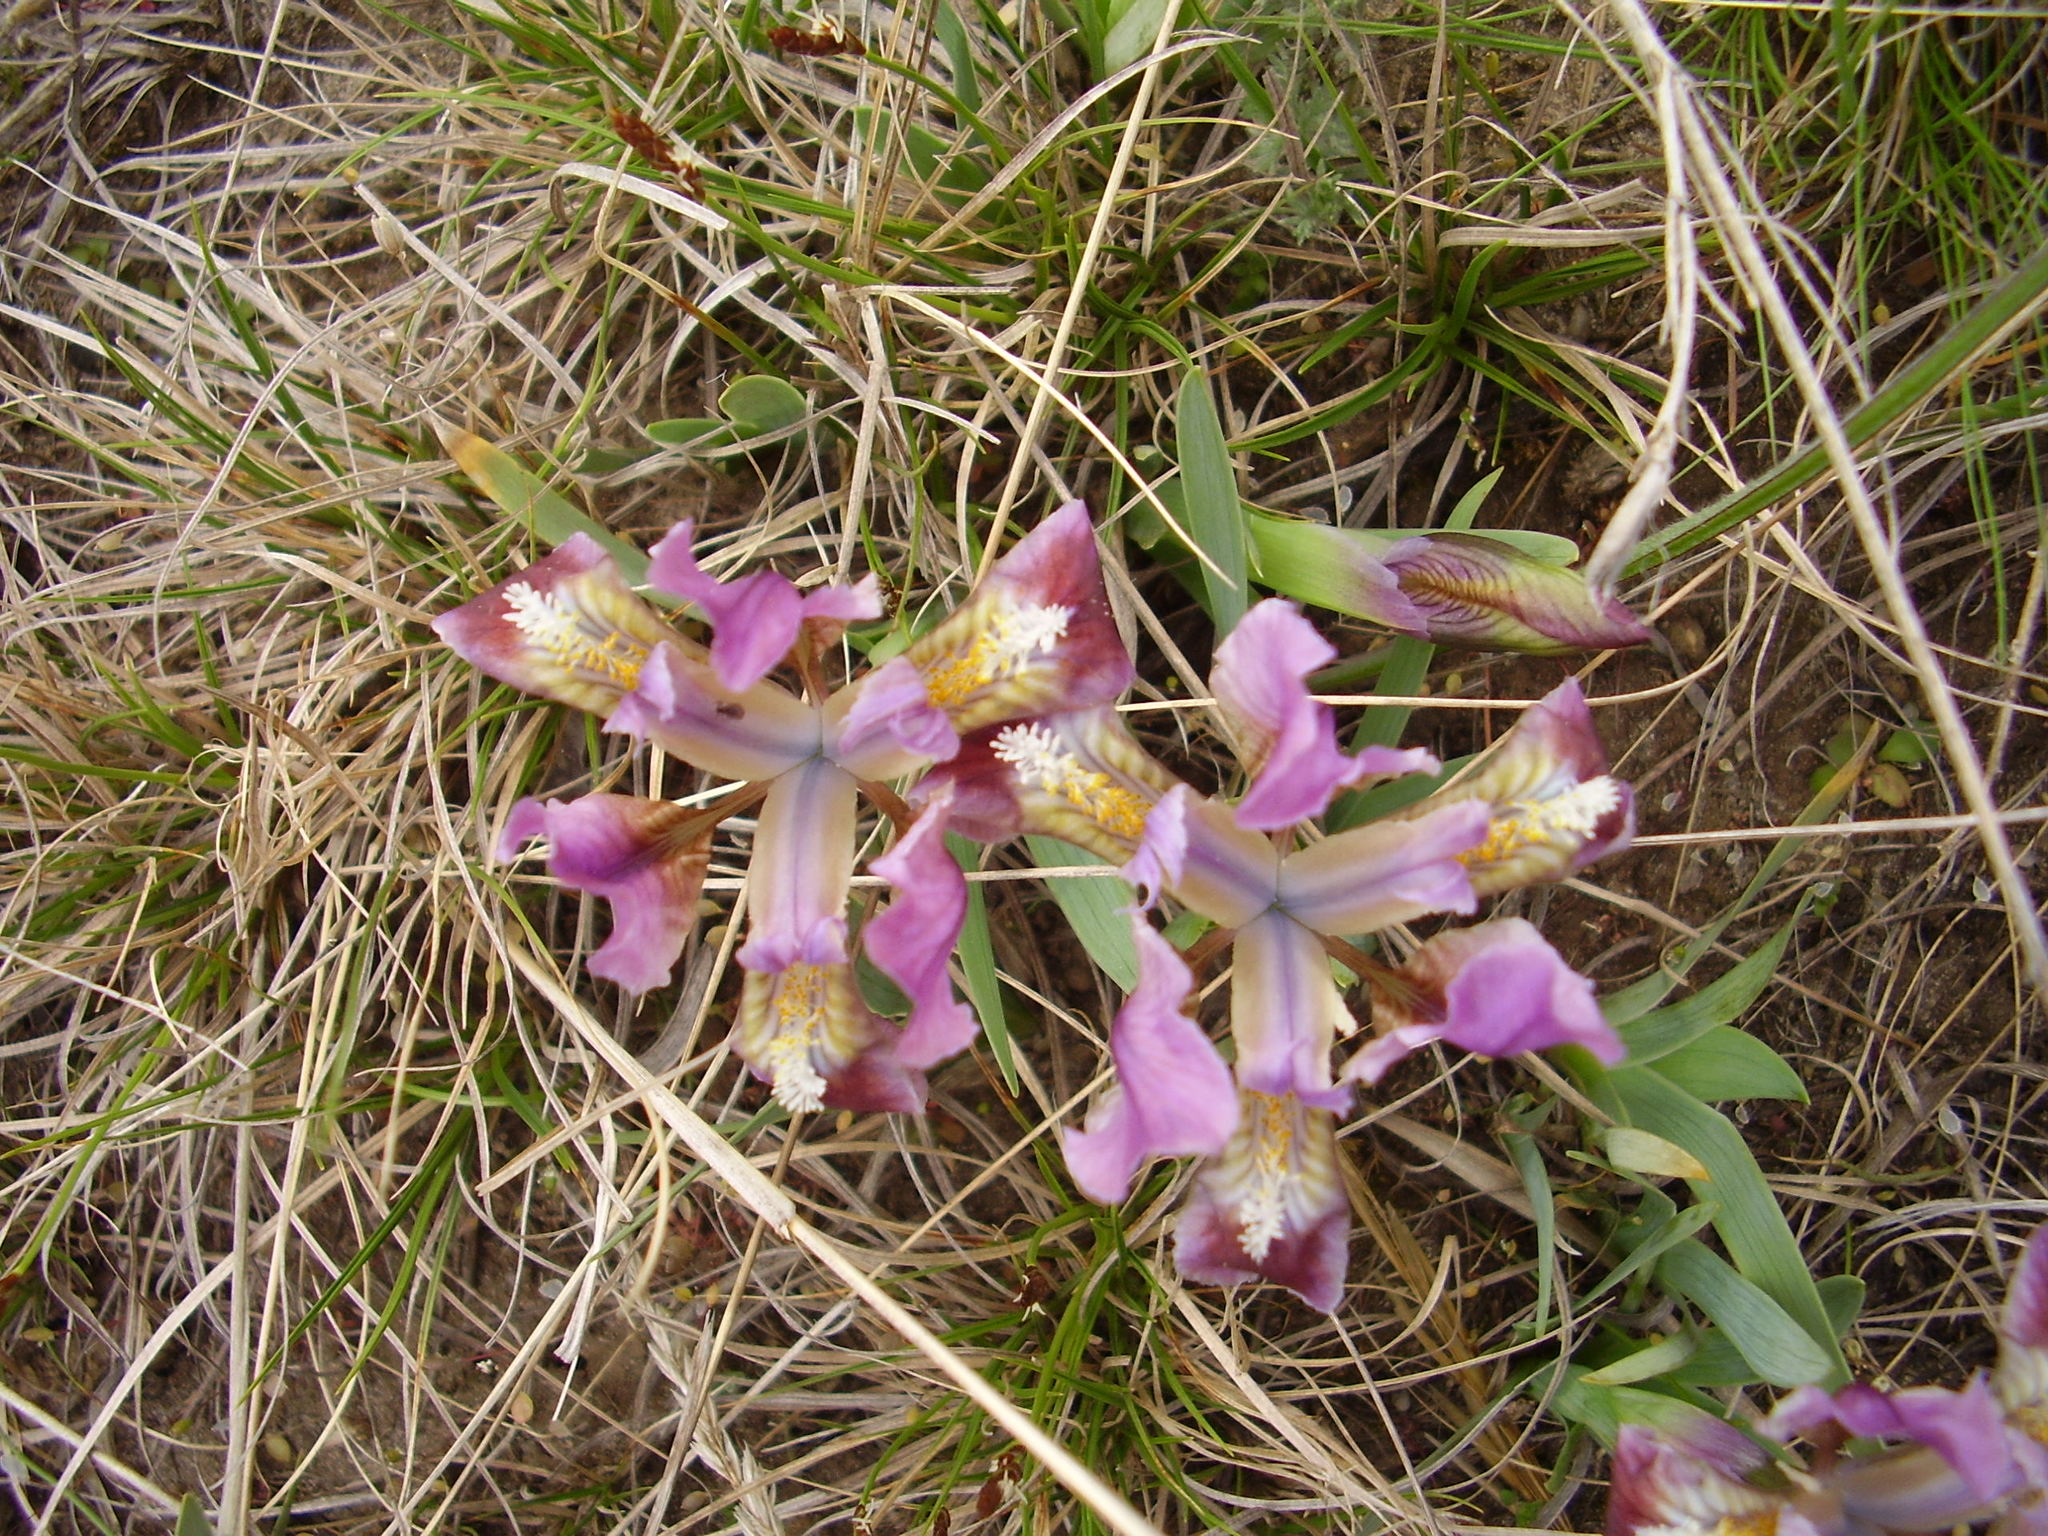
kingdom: Plantae
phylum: Tracheophyta
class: Liliopsida
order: Asparagales
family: Iridaceae
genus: Iris
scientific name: Iris pumila
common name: Dwarf iris
